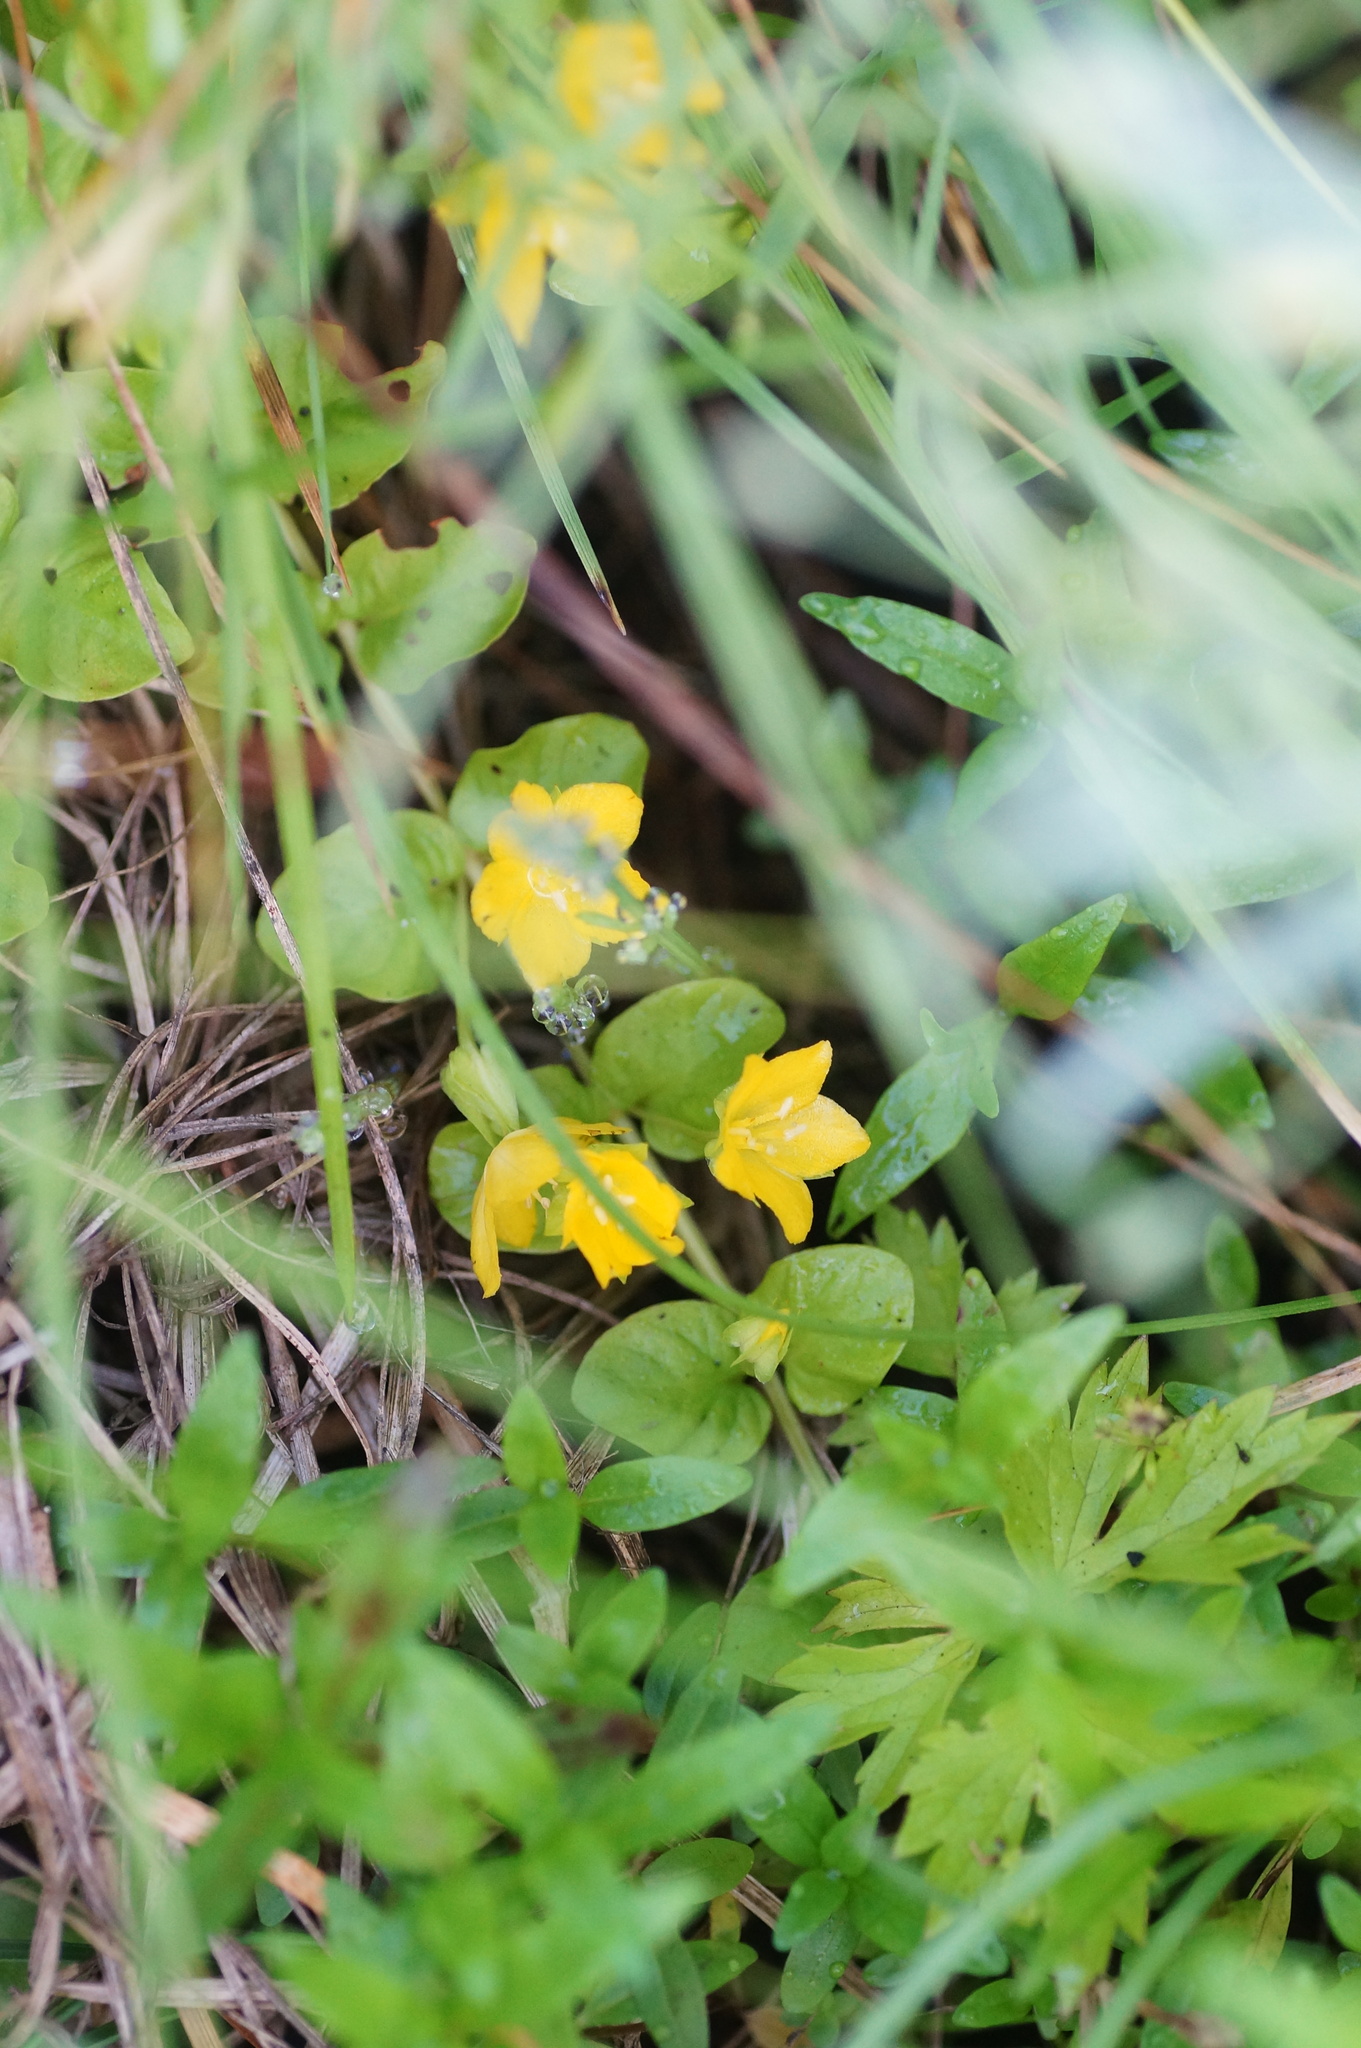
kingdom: Plantae
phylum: Tracheophyta
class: Magnoliopsida
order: Ericales
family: Primulaceae
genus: Lysimachia
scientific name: Lysimachia nummularia
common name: Moneywort
